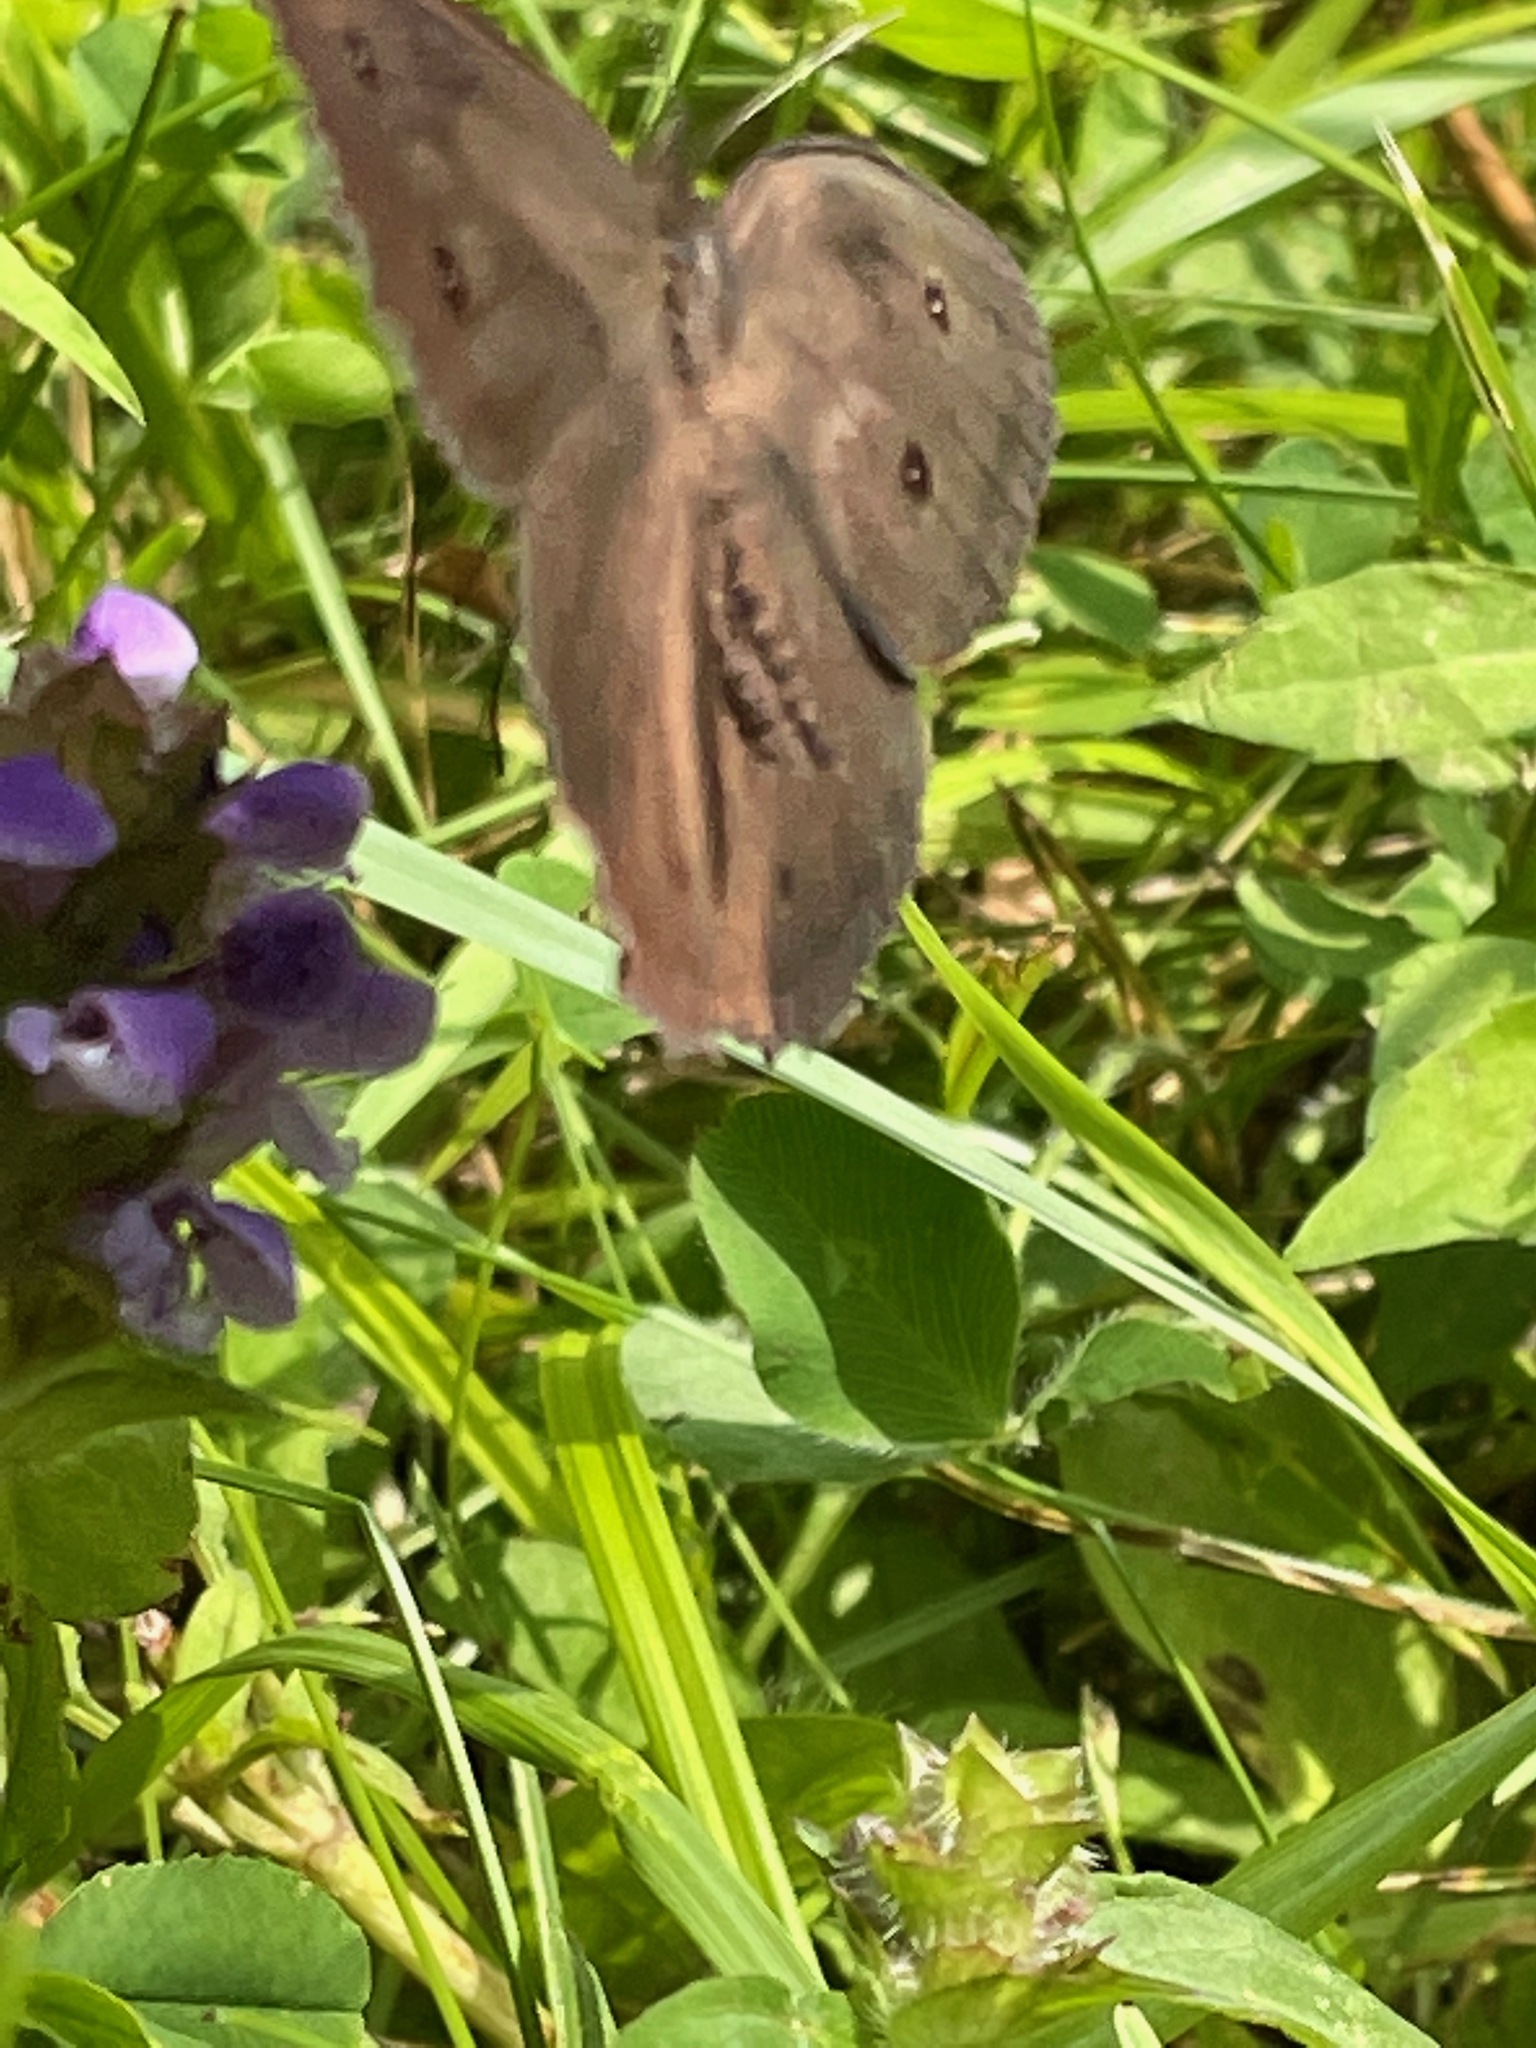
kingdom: Animalia
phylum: Arthropoda
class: Insecta
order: Lepidoptera
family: Nymphalidae
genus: Cercyonis
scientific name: Cercyonis pegala
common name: Common wood-nymph
